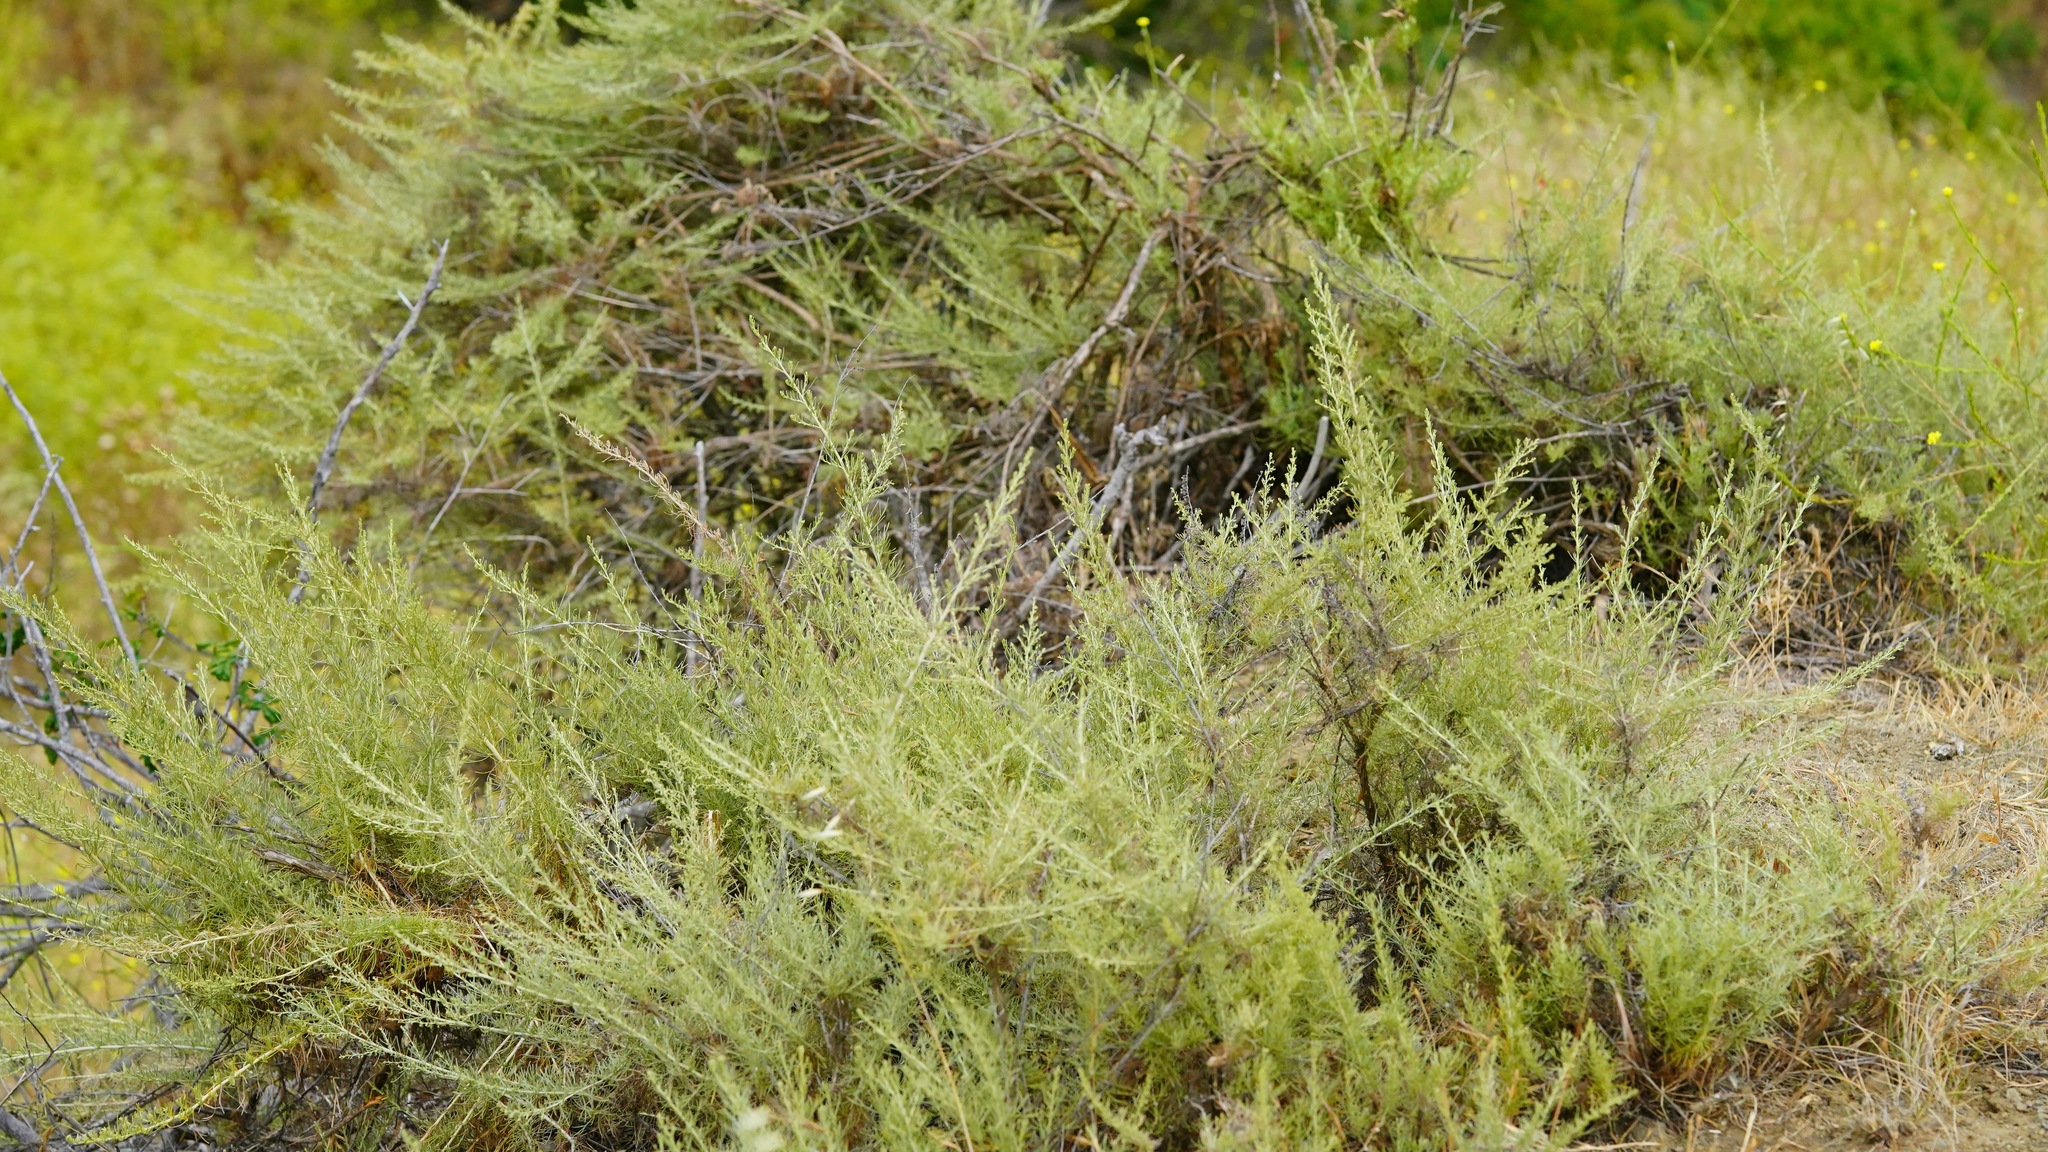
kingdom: Plantae
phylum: Tracheophyta
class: Magnoliopsida
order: Asterales
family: Asteraceae
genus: Artemisia
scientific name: Artemisia californica
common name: California sagebrush
